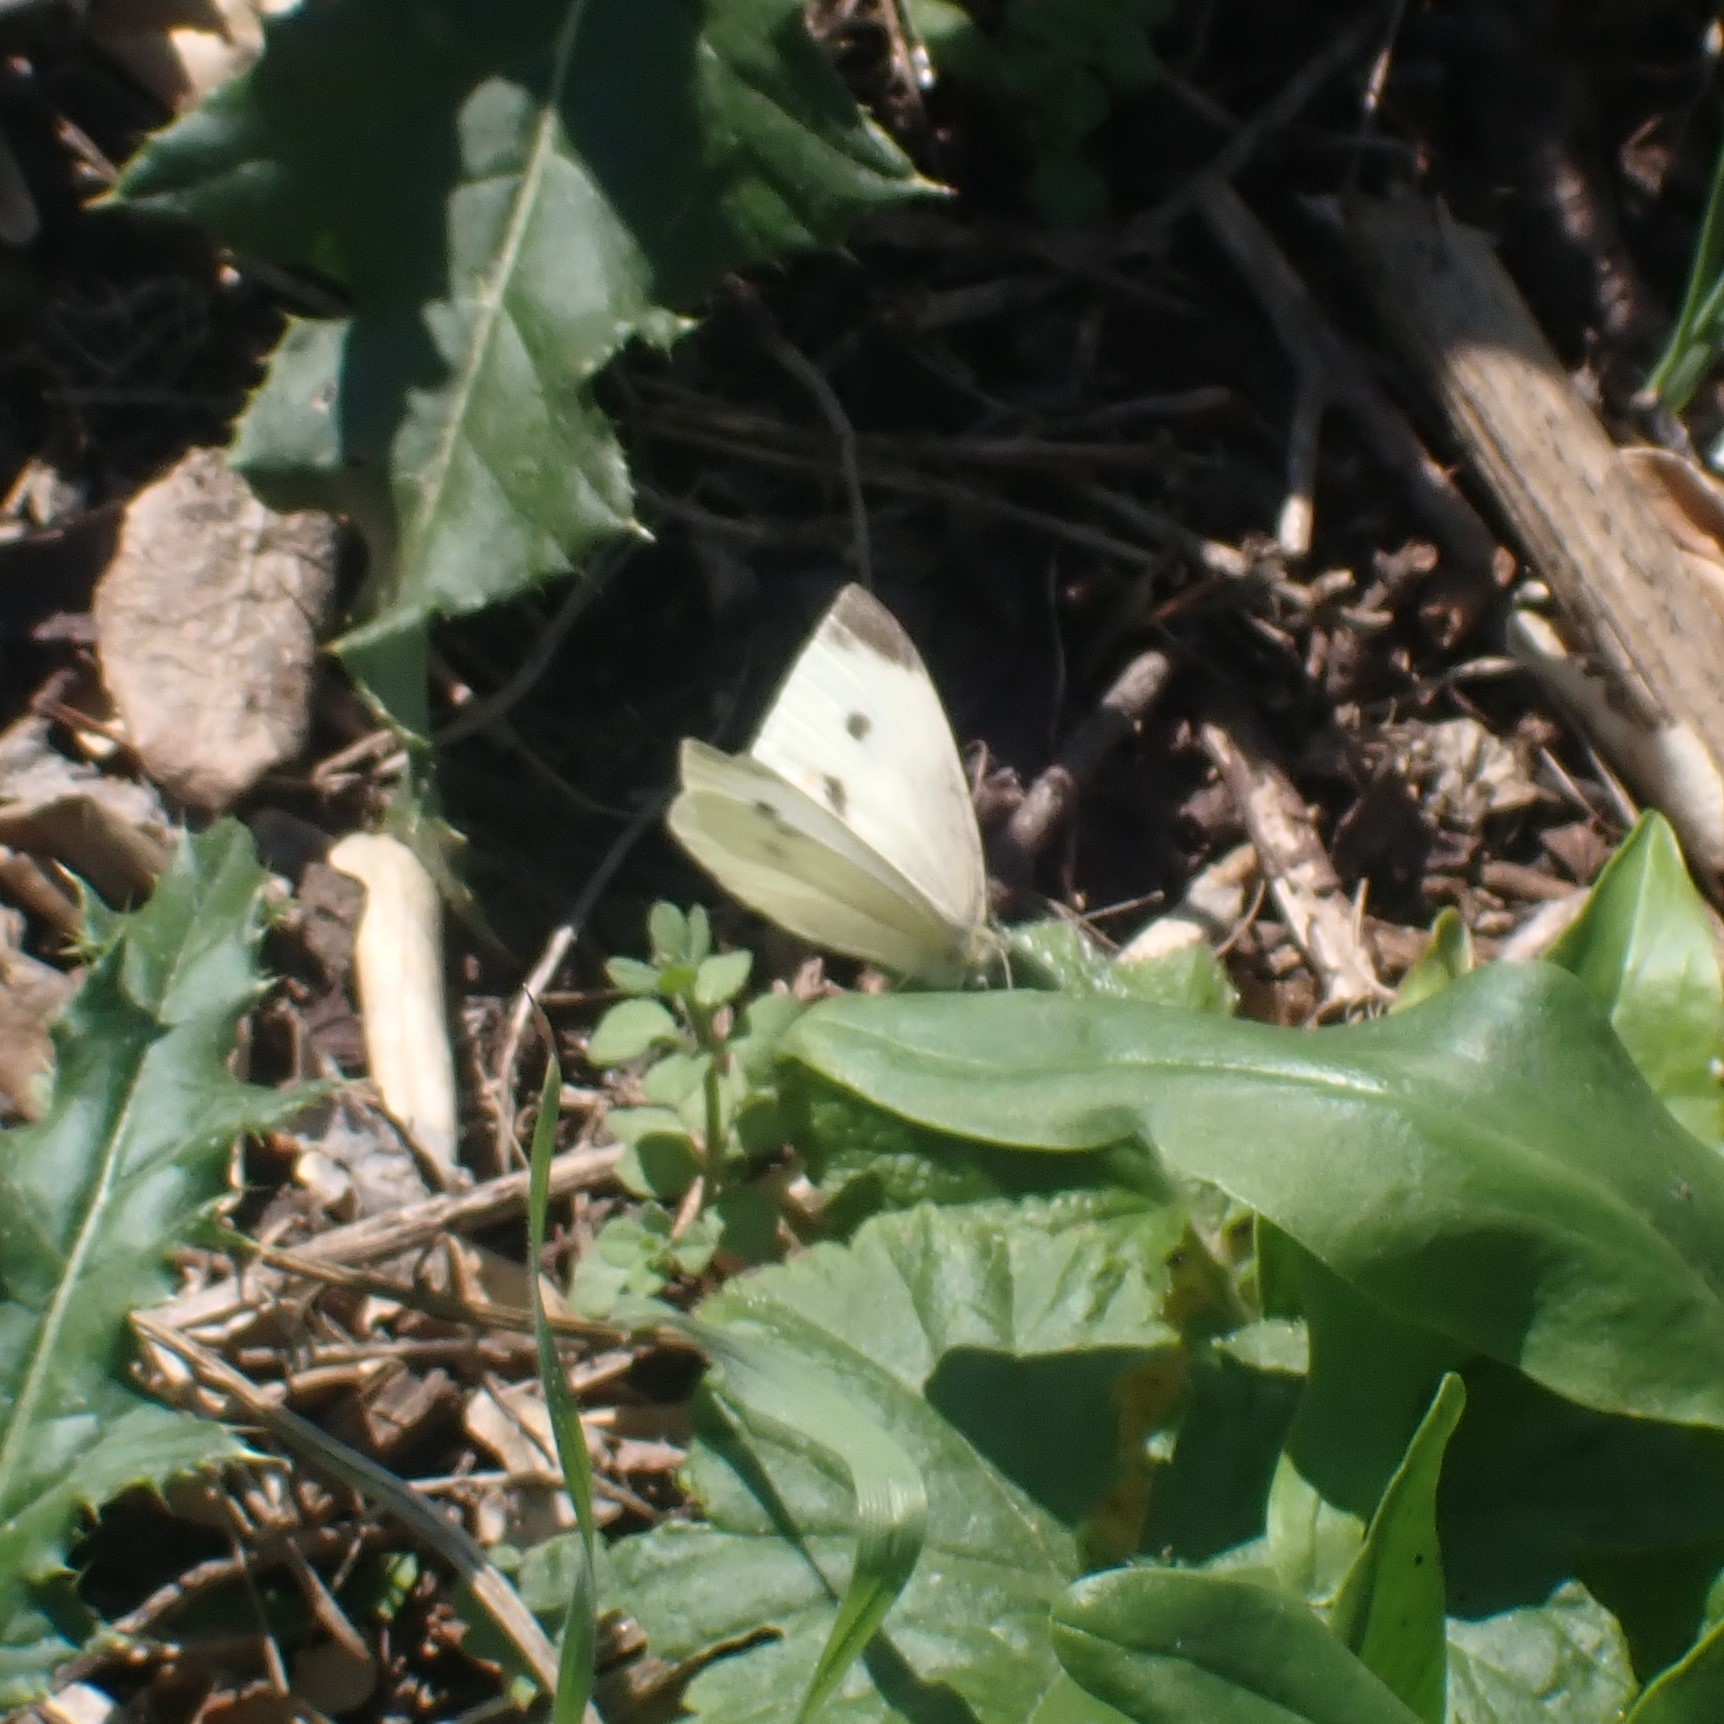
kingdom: Animalia
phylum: Arthropoda
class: Insecta
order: Lepidoptera
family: Pieridae
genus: Pieris
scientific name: Pieris rapae
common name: Small white
